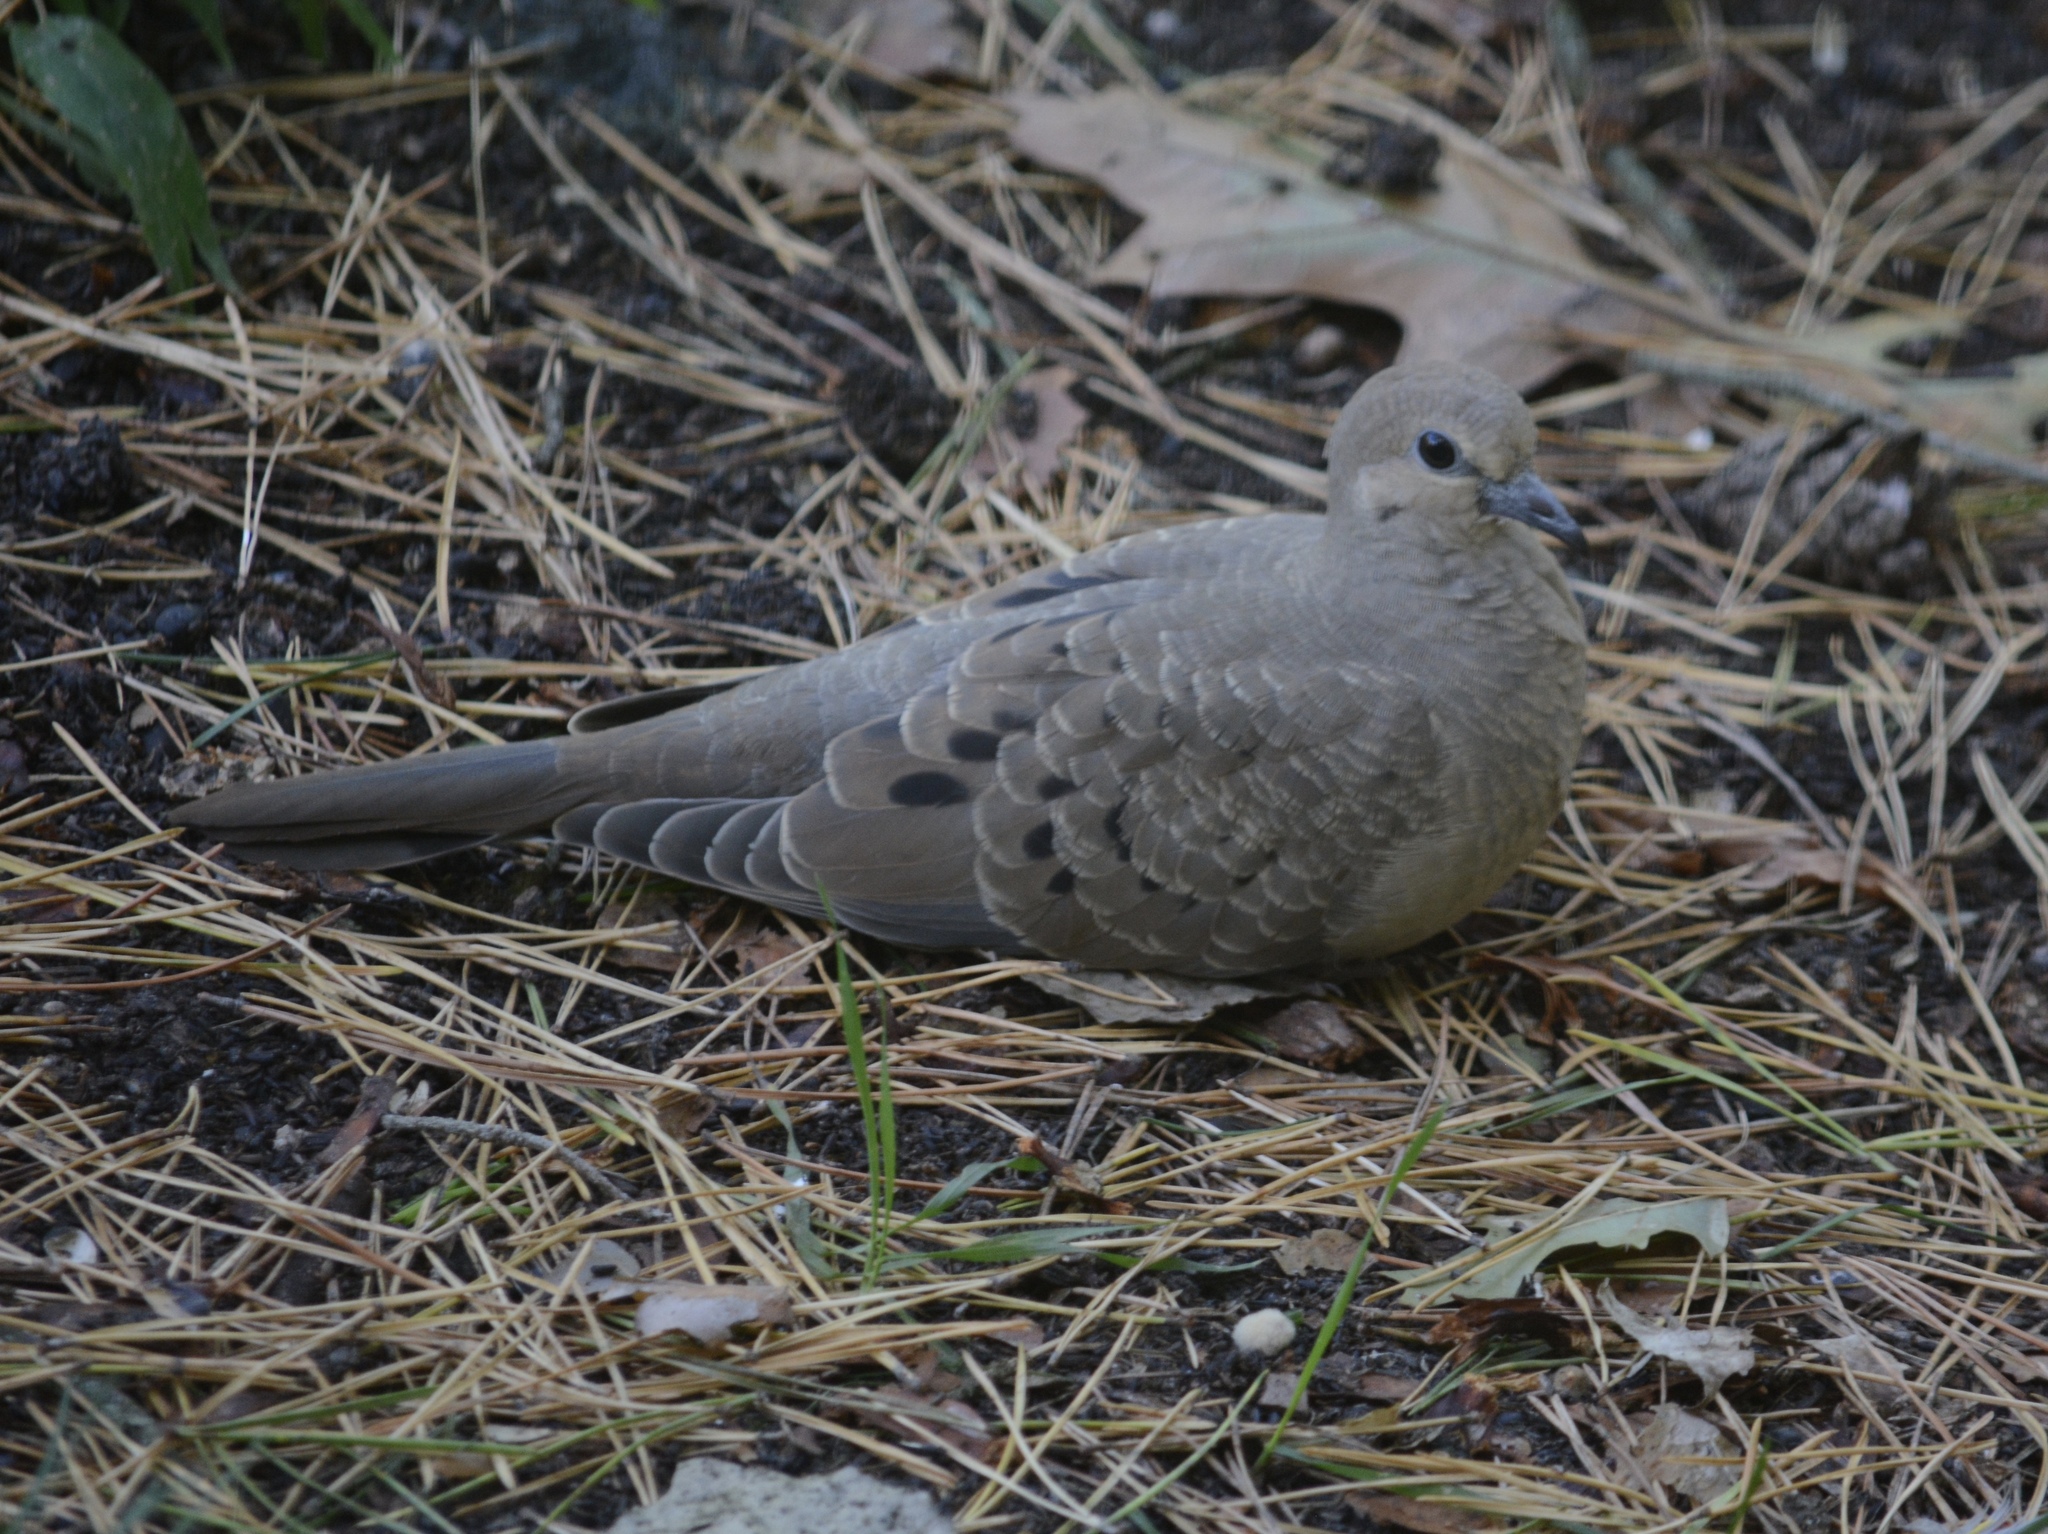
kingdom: Animalia
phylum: Chordata
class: Aves
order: Columbiformes
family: Columbidae
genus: Zenaida
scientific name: Zenaida macroura
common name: Mourning dove
